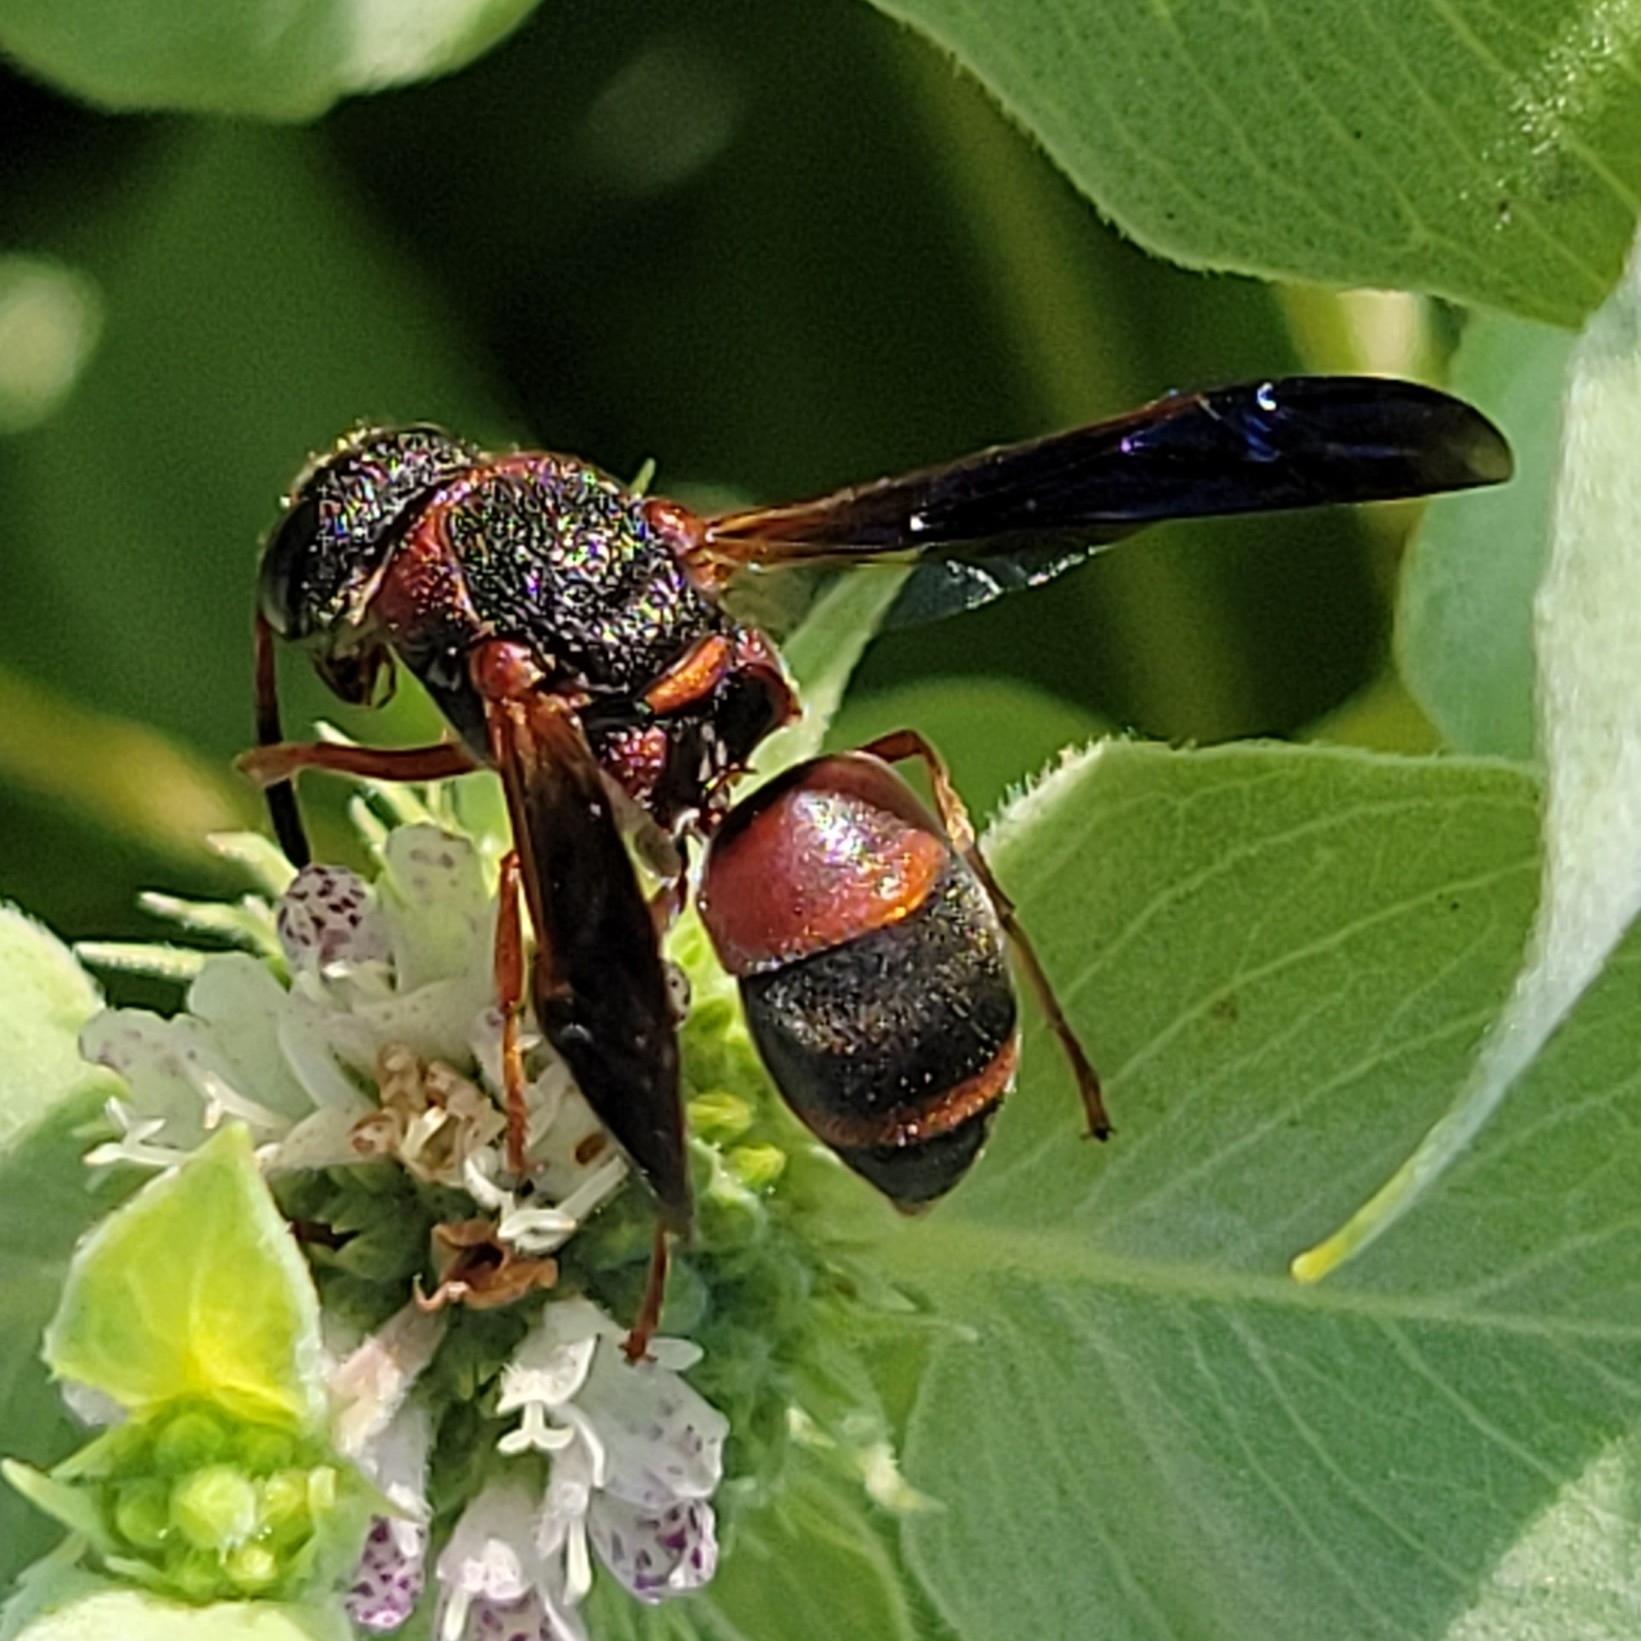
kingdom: Animalia
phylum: Arthropoda
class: Insecta
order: Hymenoptera
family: Eumenidae
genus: Pachodynerus
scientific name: Pachodynerus erynnis
